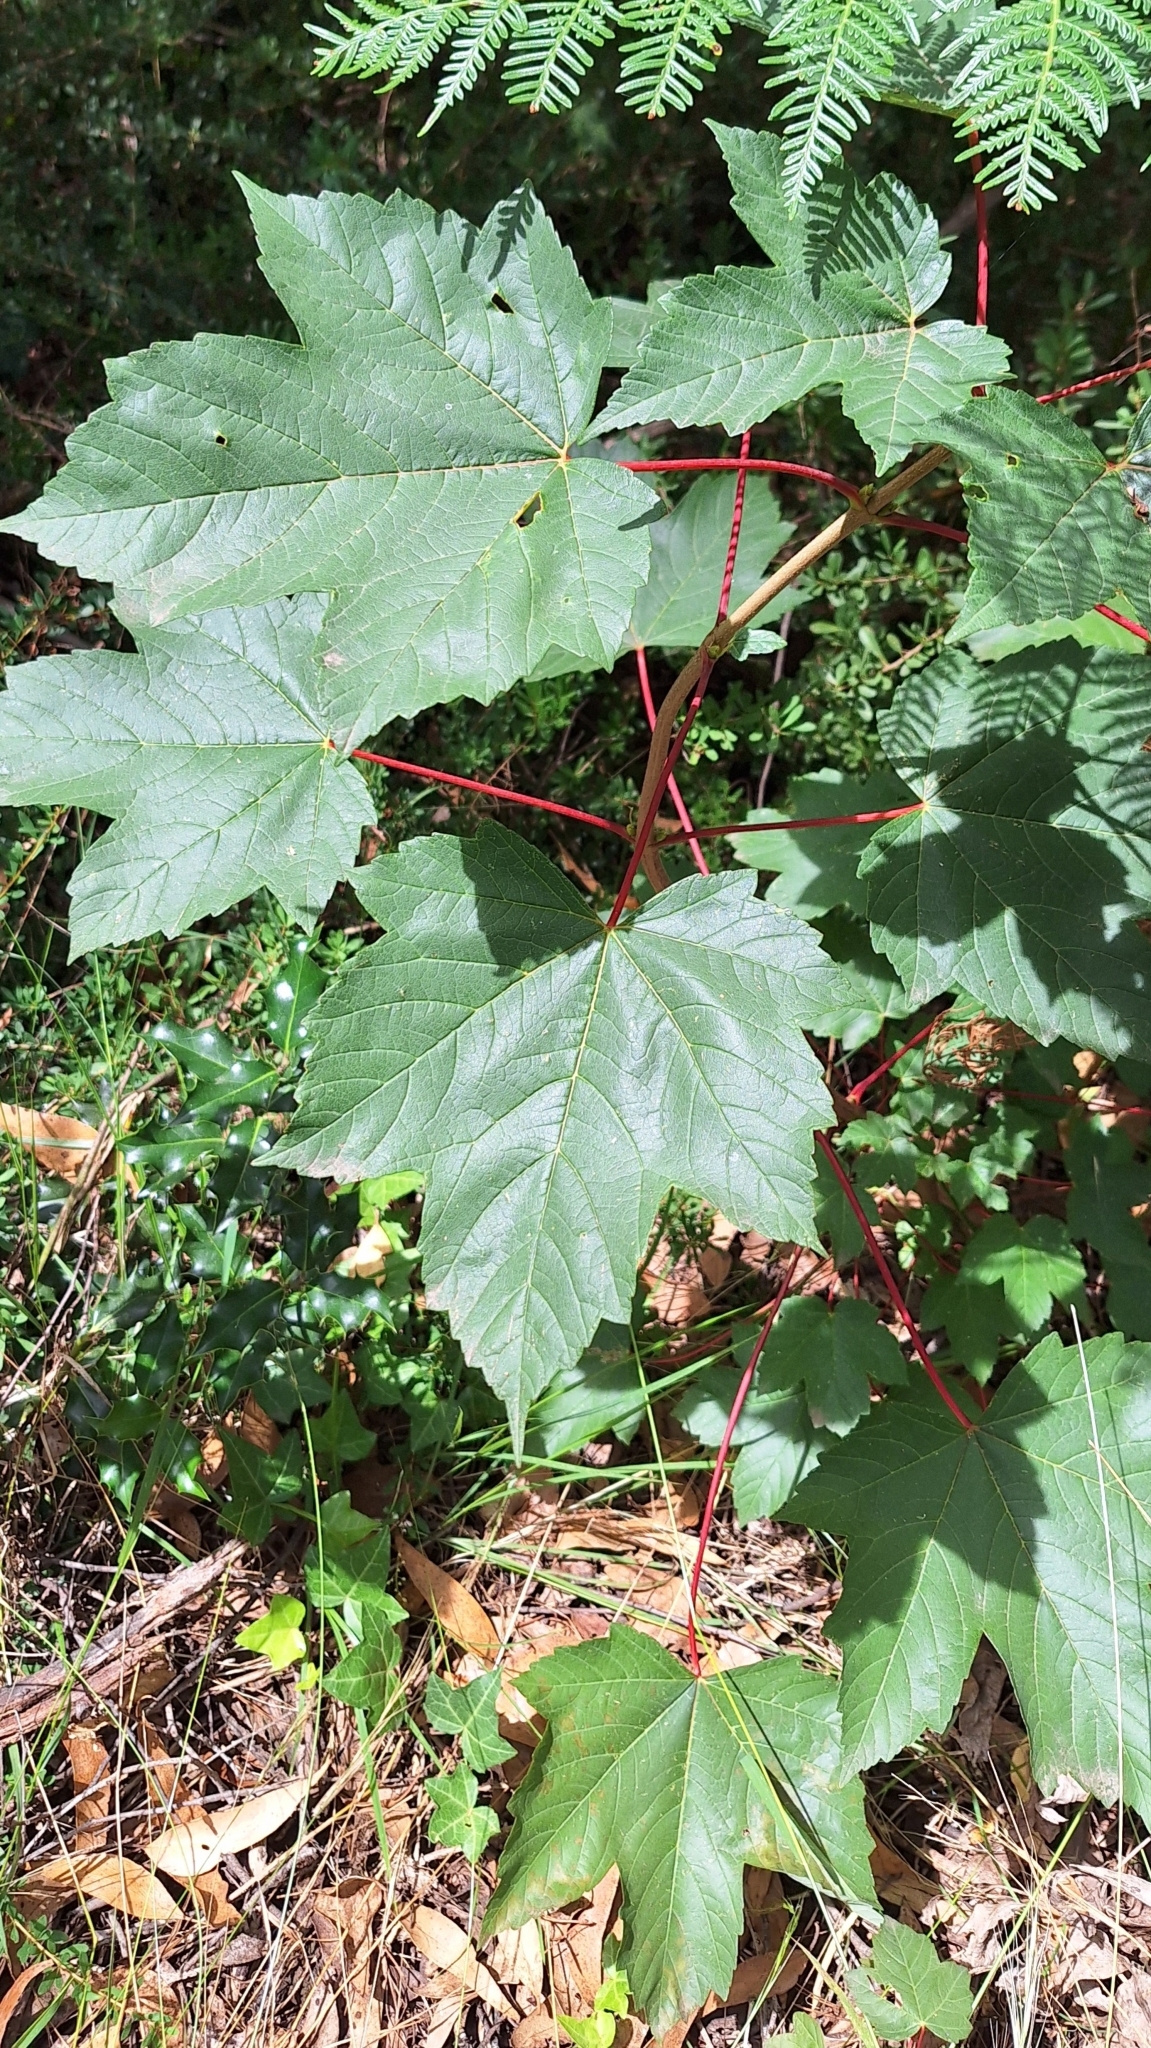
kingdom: Plantae
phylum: Tracheophyta
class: Magnoliopsida
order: Sapindales
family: Sapindaceae
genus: Acer
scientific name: Acer pseudoplatanus
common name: Sycamore
